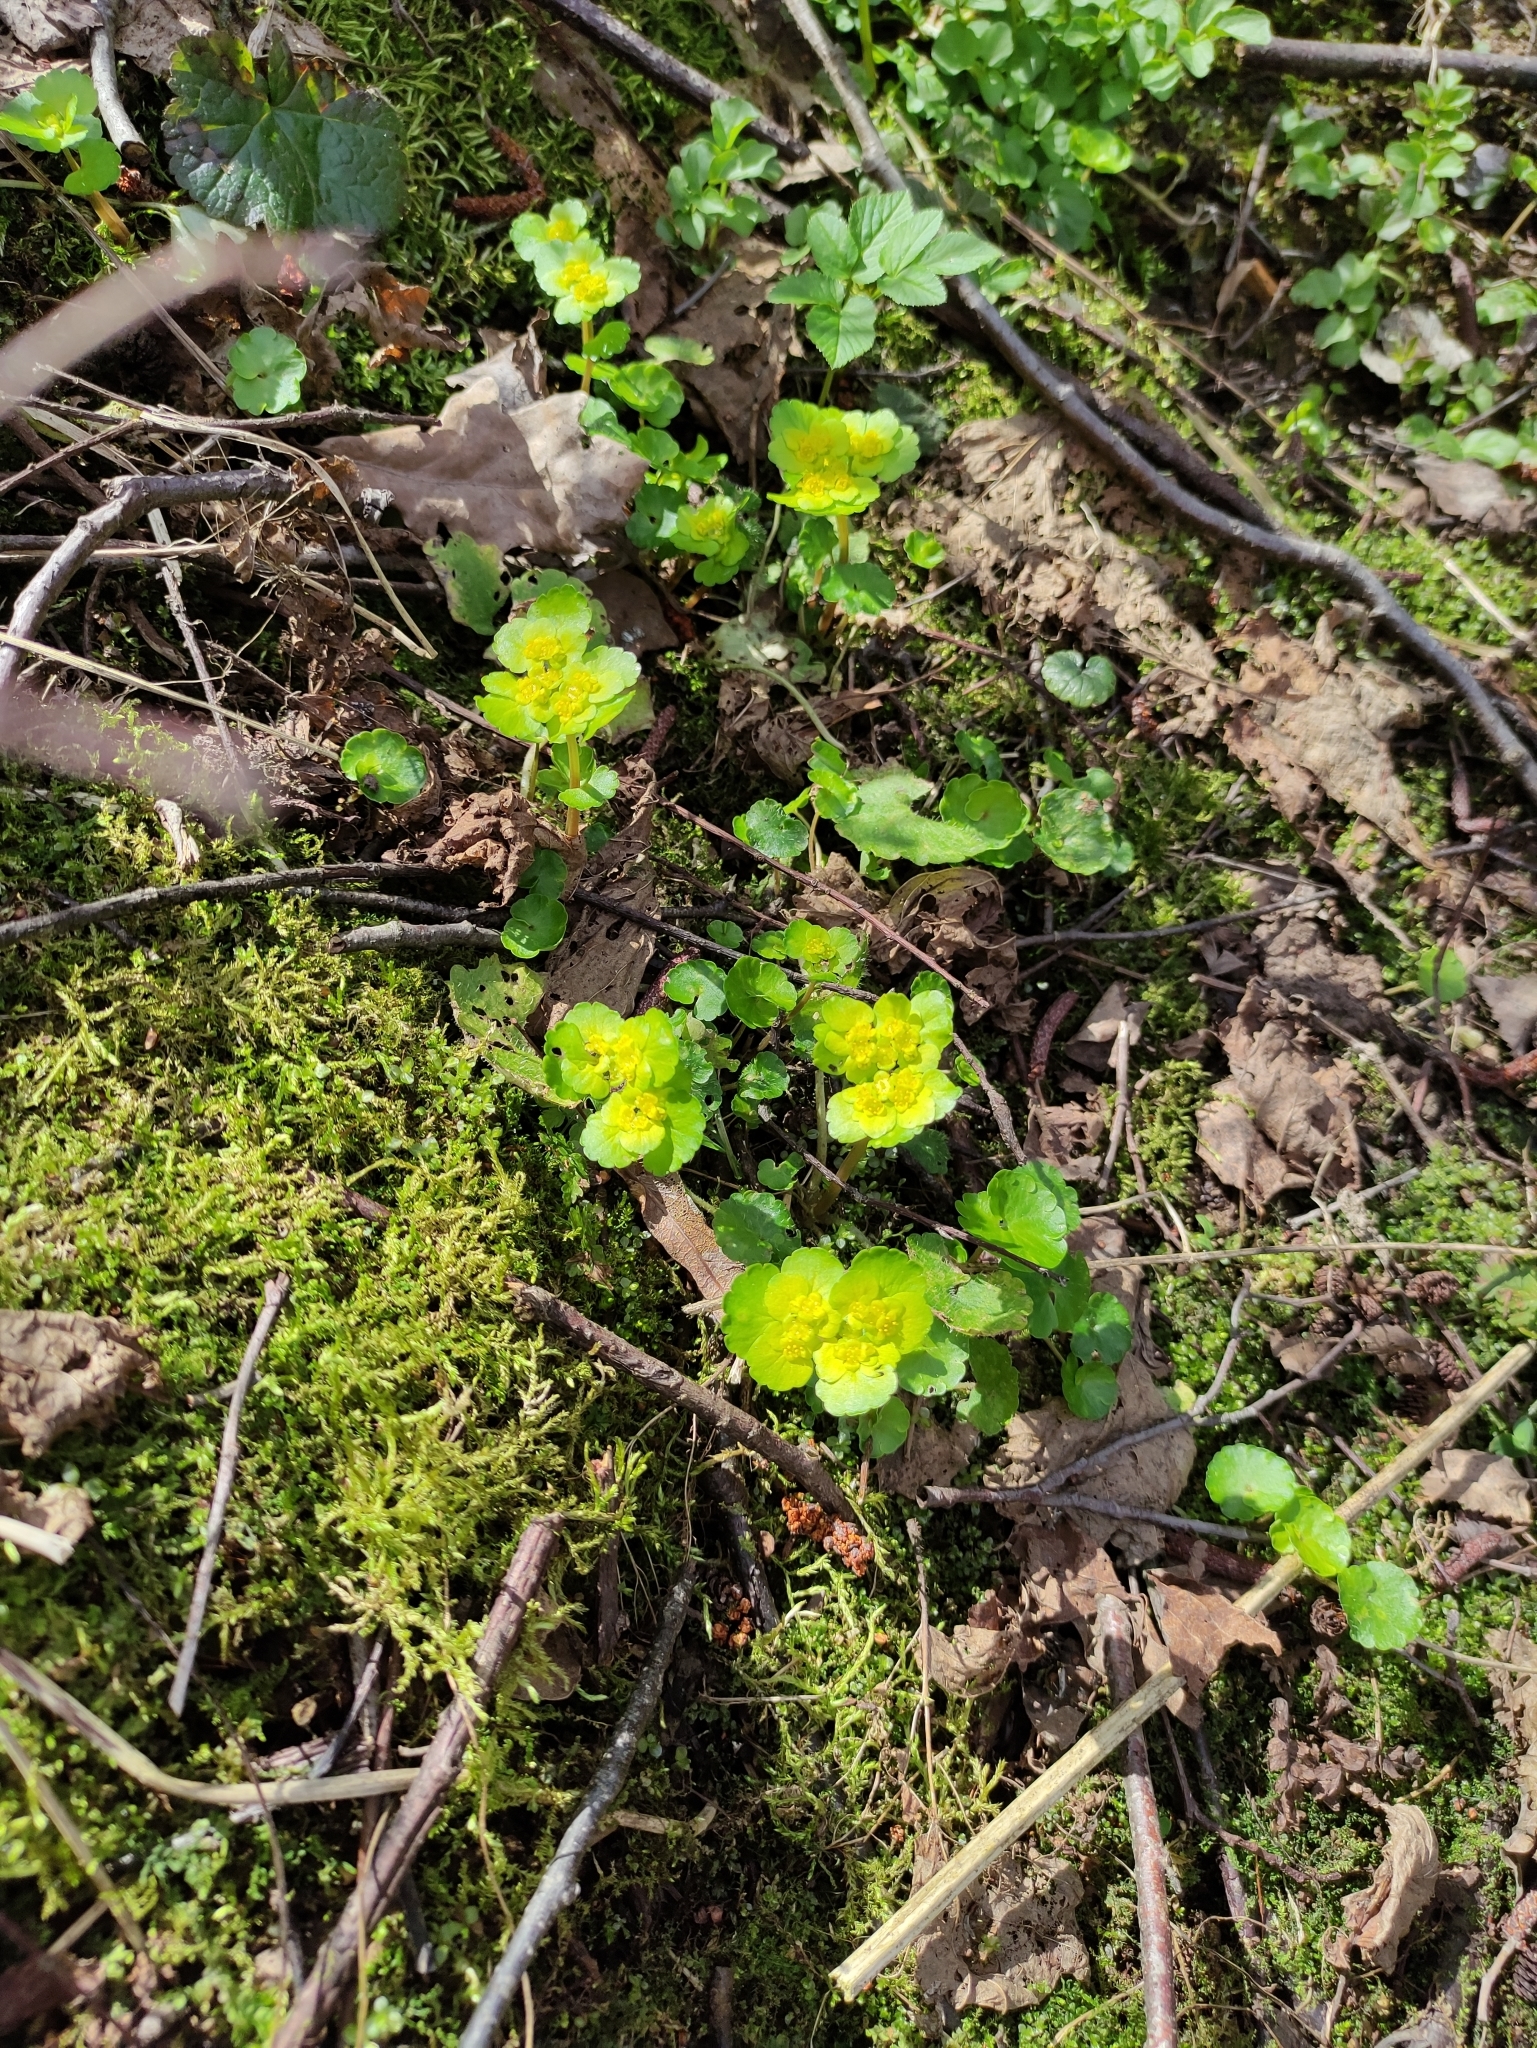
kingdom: Plantae
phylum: Tracheophyta
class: Magnoliopsida
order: Saxifragales
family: Saxifragaceae
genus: Chrysosplenium
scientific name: Chrysosplenium alternifolium
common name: Alternate-leaved golden-saxifrage
